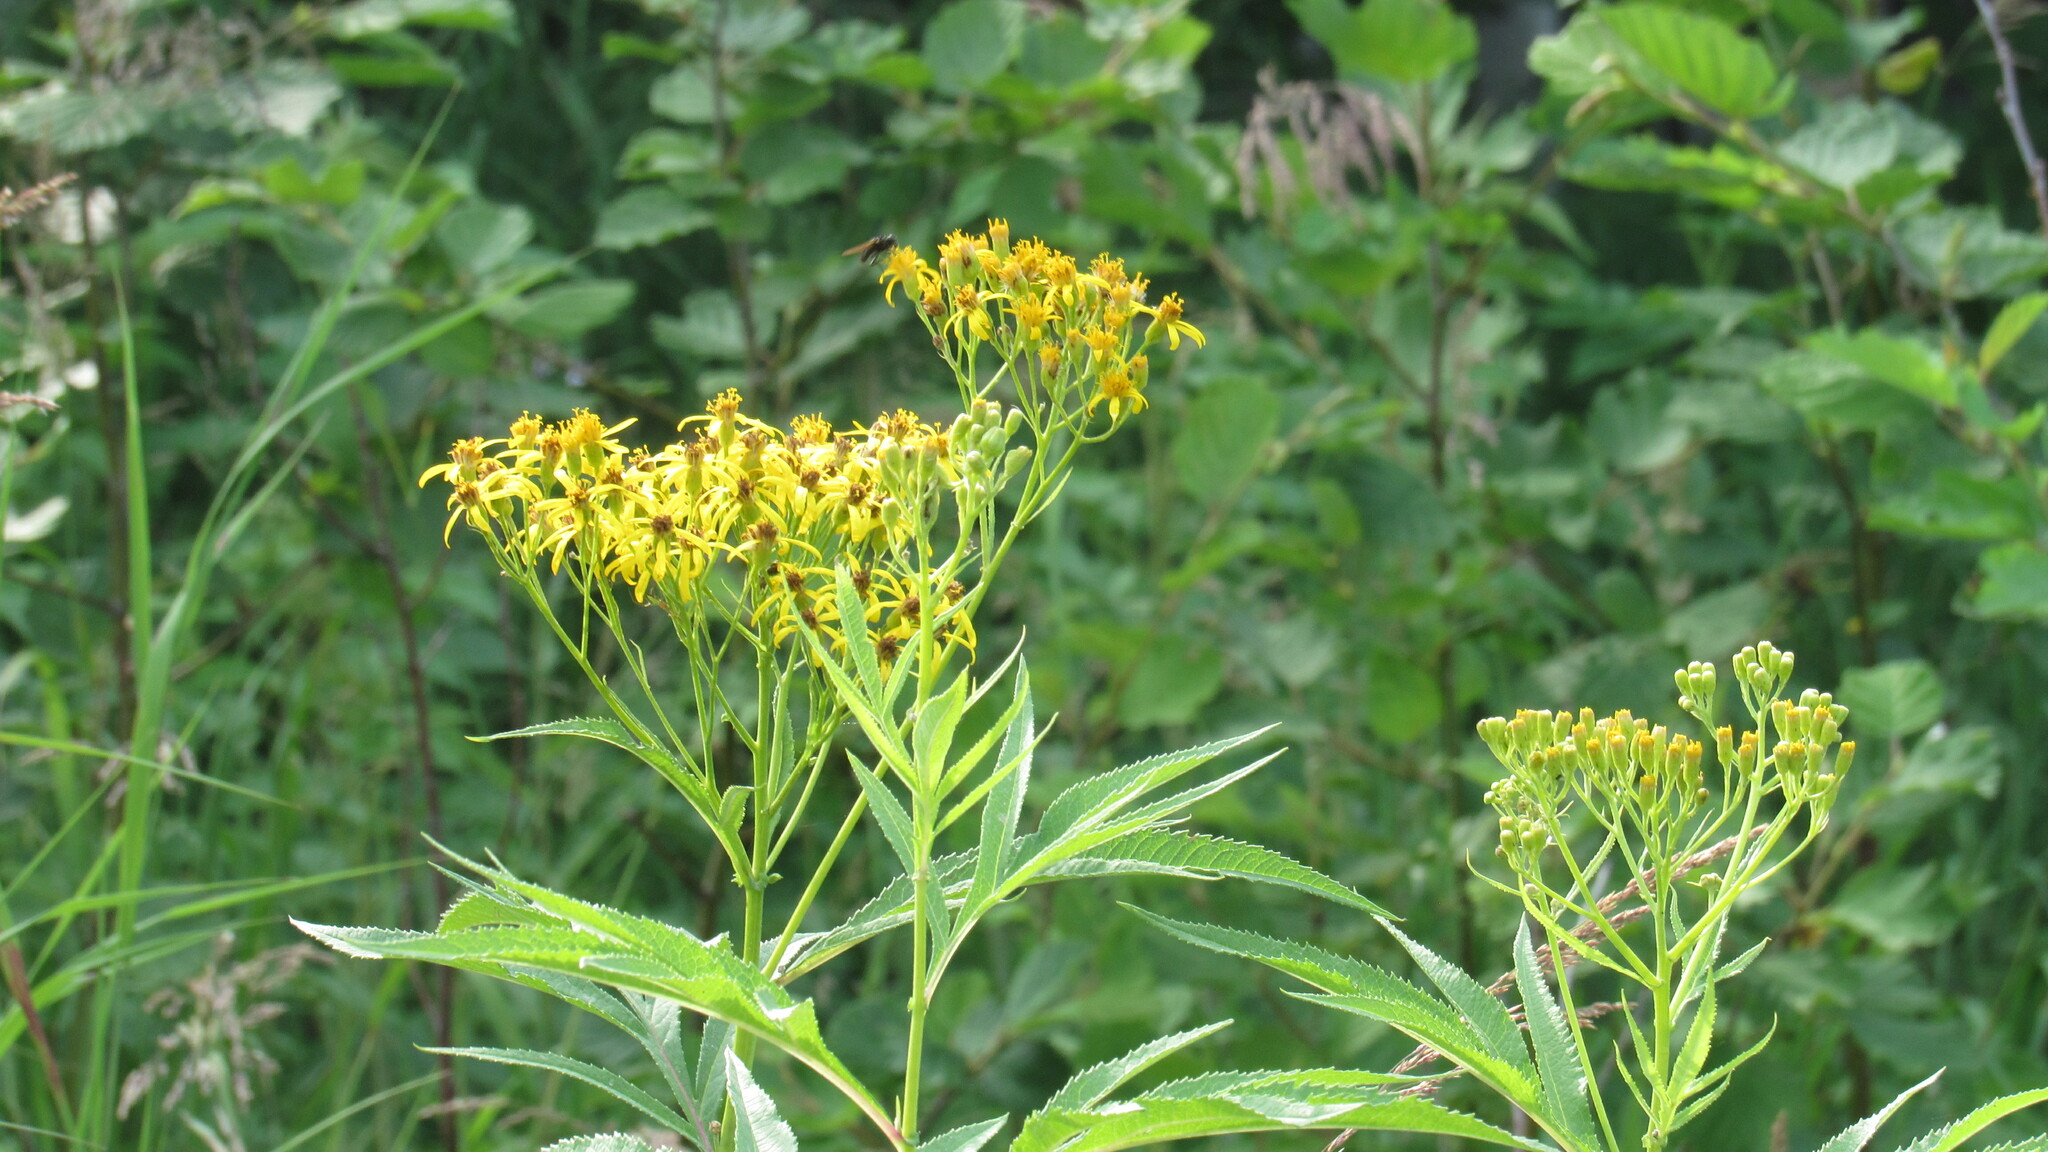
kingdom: Plantae
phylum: Tracheophyta
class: Magnoliopsida
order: Asterales
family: Asteraceae
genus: Jacobaea
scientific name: Jacobaea cannabifolia
